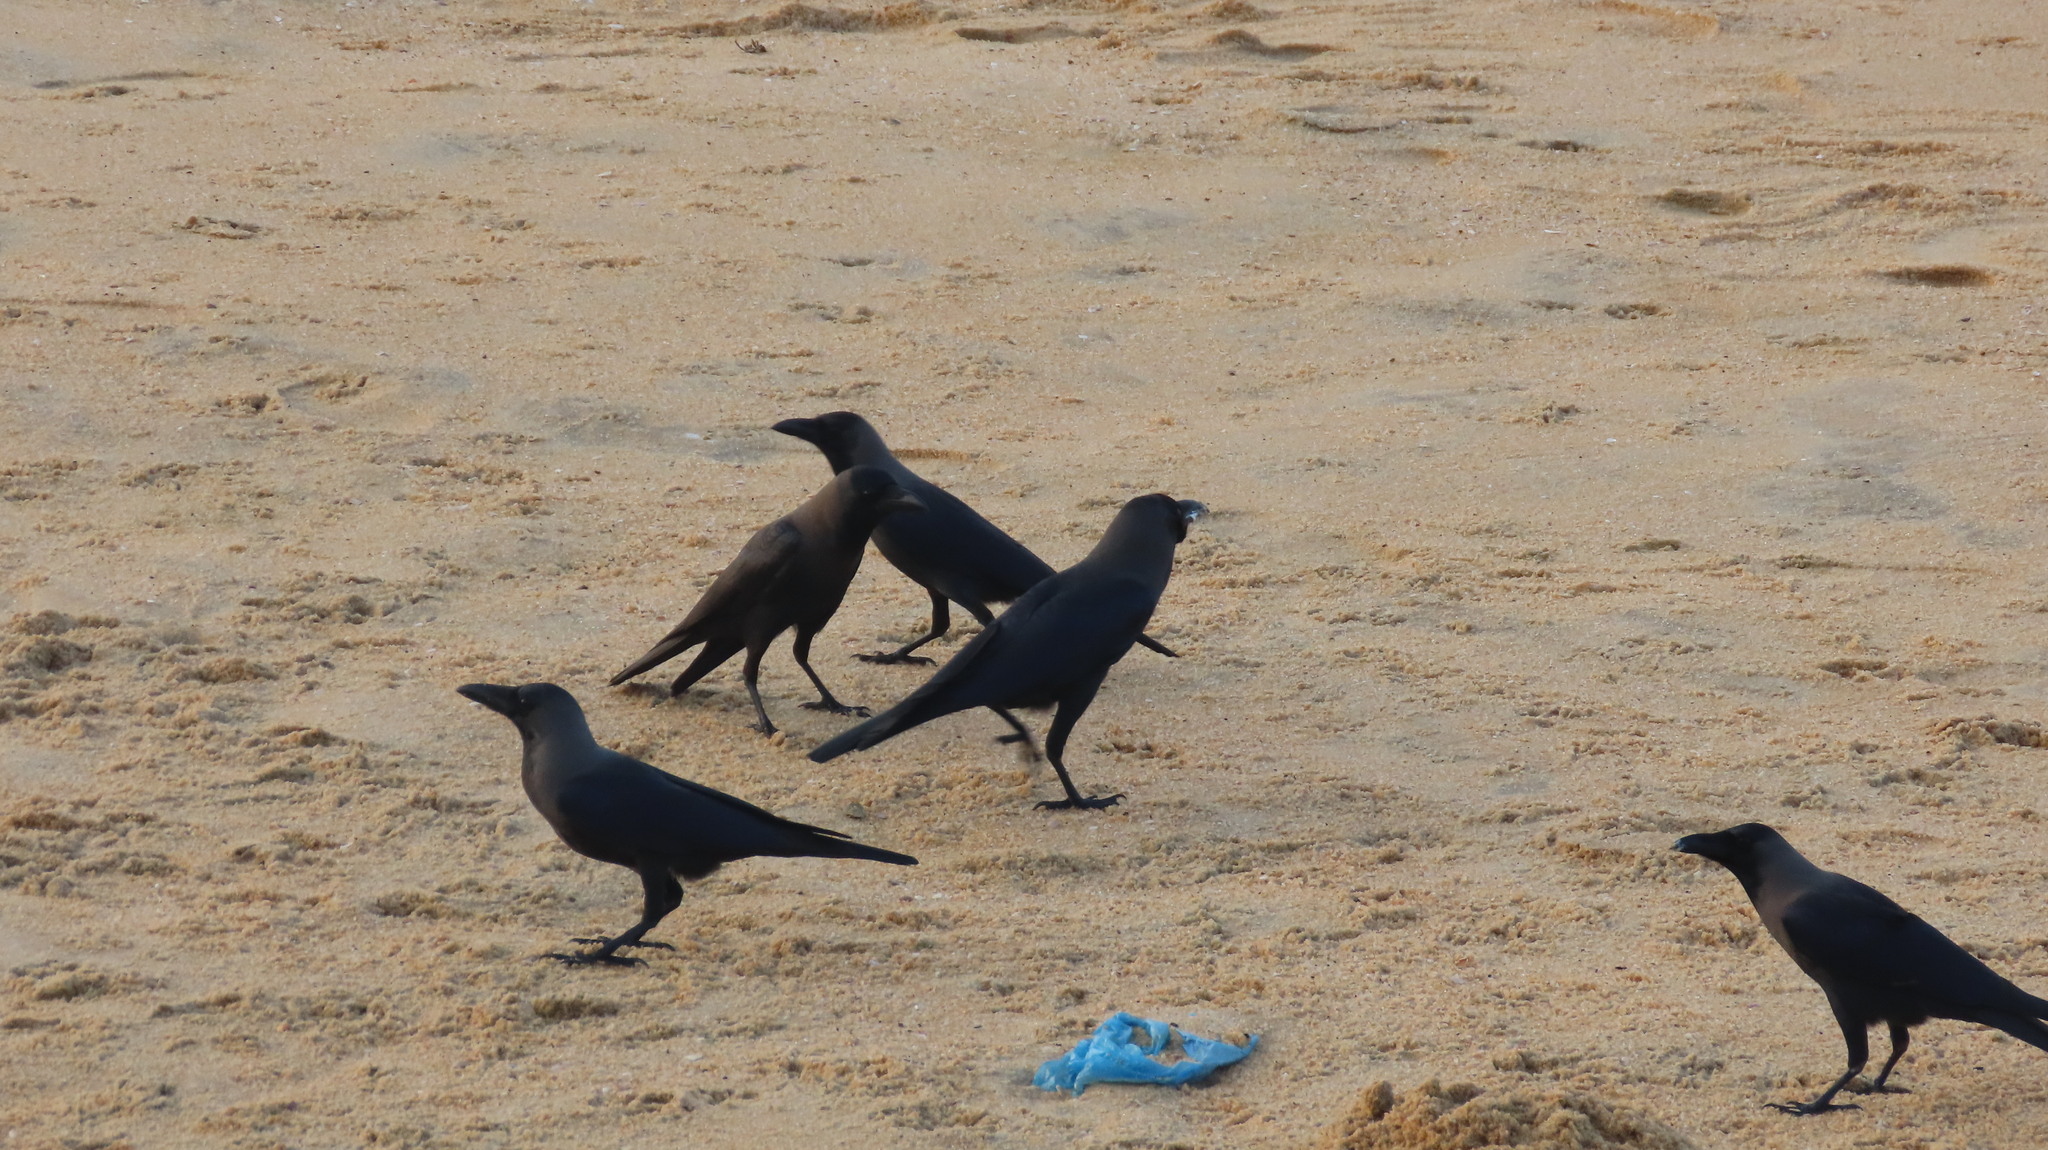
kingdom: Animalia
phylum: Chordata
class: Aves
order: Passeriformes
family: Corvidae
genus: Corvus
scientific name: Corvus splendens
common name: House crow
